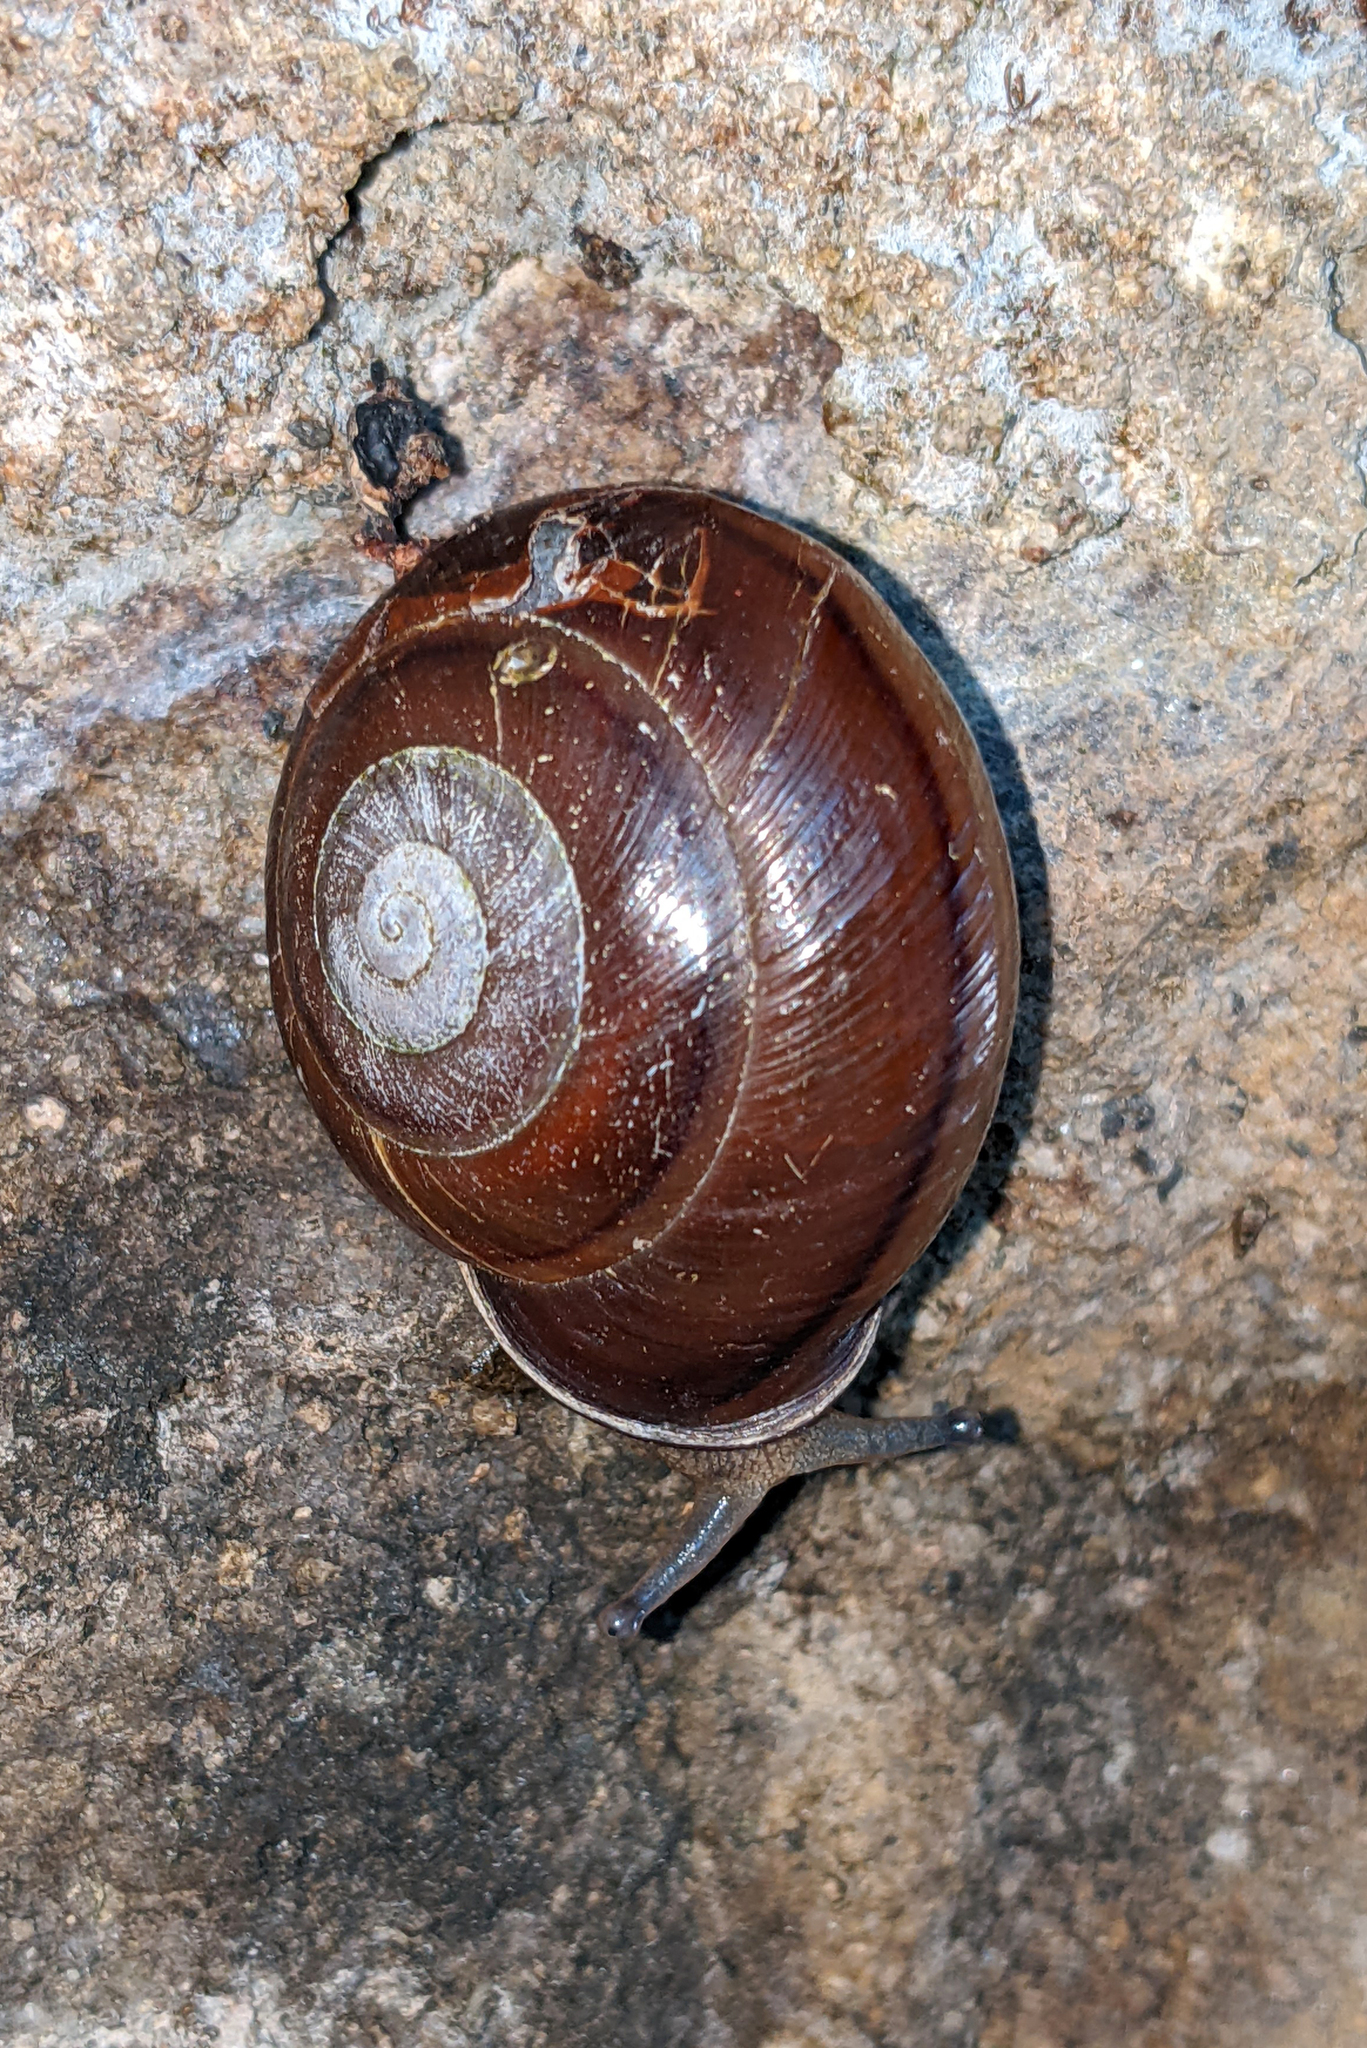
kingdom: Animalia
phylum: Mollusca
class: Gastropoda
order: Stylommatophora
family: Pleurodontidae
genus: Pleurodonte
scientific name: Pleurodonte orbiculata
